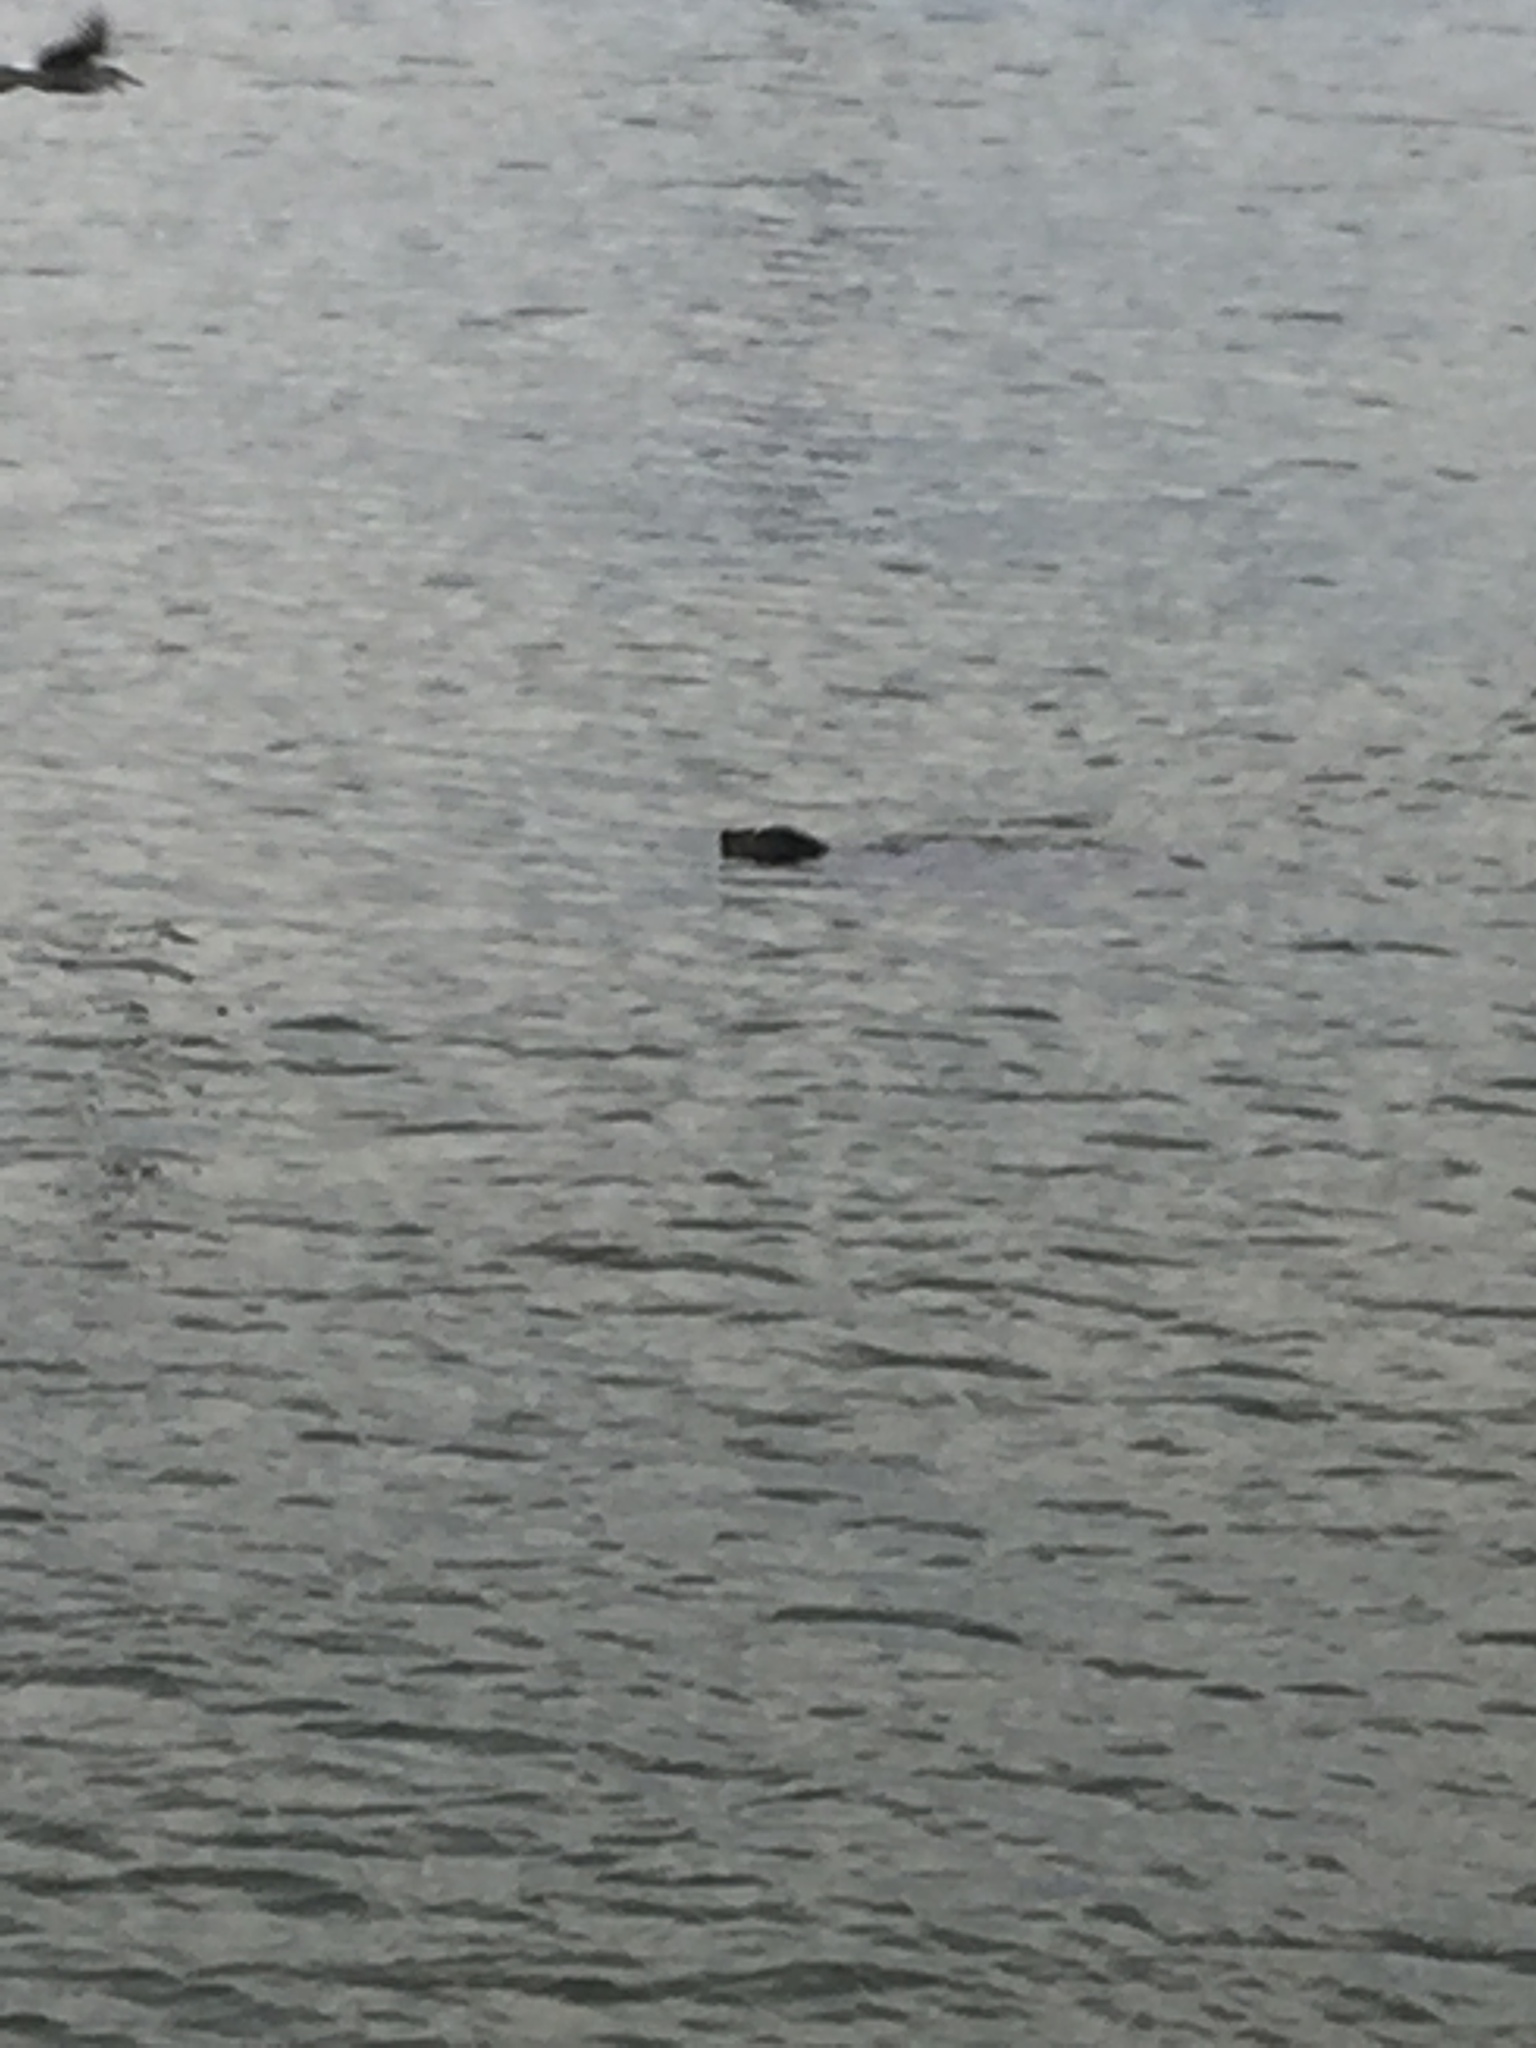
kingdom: Animalia
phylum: Chordata
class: Mammalia
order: Carnivora
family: Phocidae
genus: Phoca
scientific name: Phoca vitulina
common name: Harbor seal
